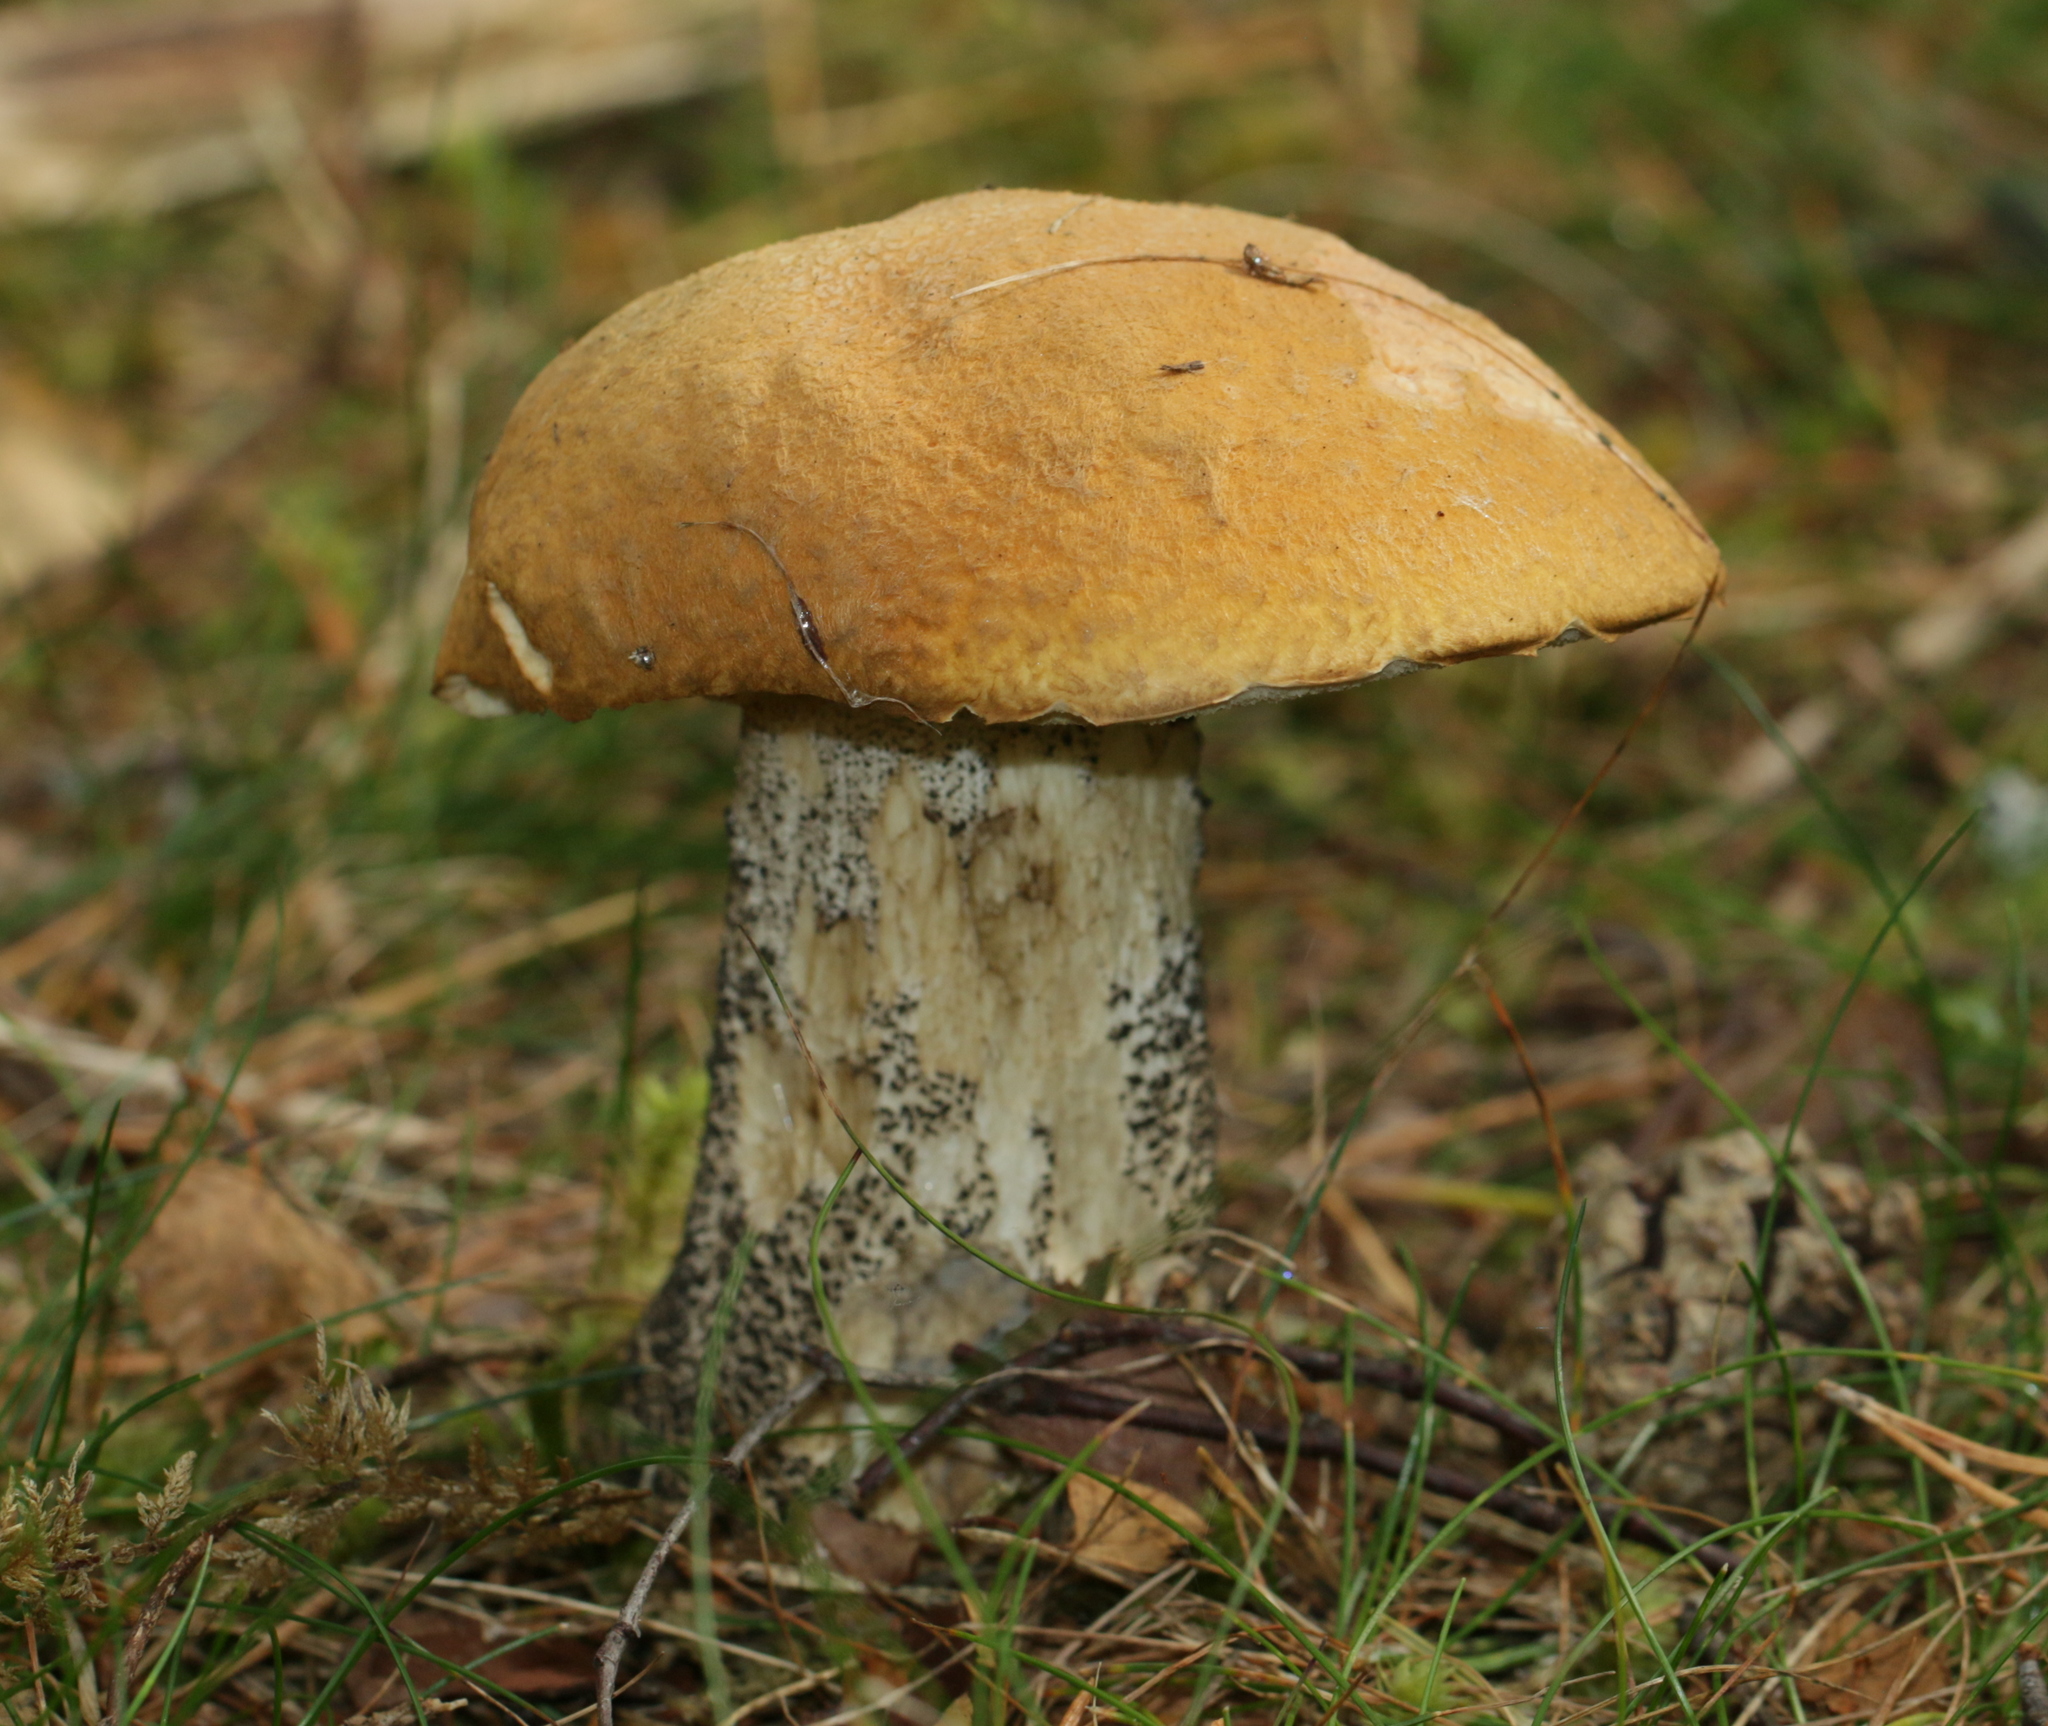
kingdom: Fungi
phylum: Basidiomycota
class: Agaricomycetes
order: Boletales
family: Boletaceae
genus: Leccinum
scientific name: Leccinum versipelle
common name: Orange birch bolete
